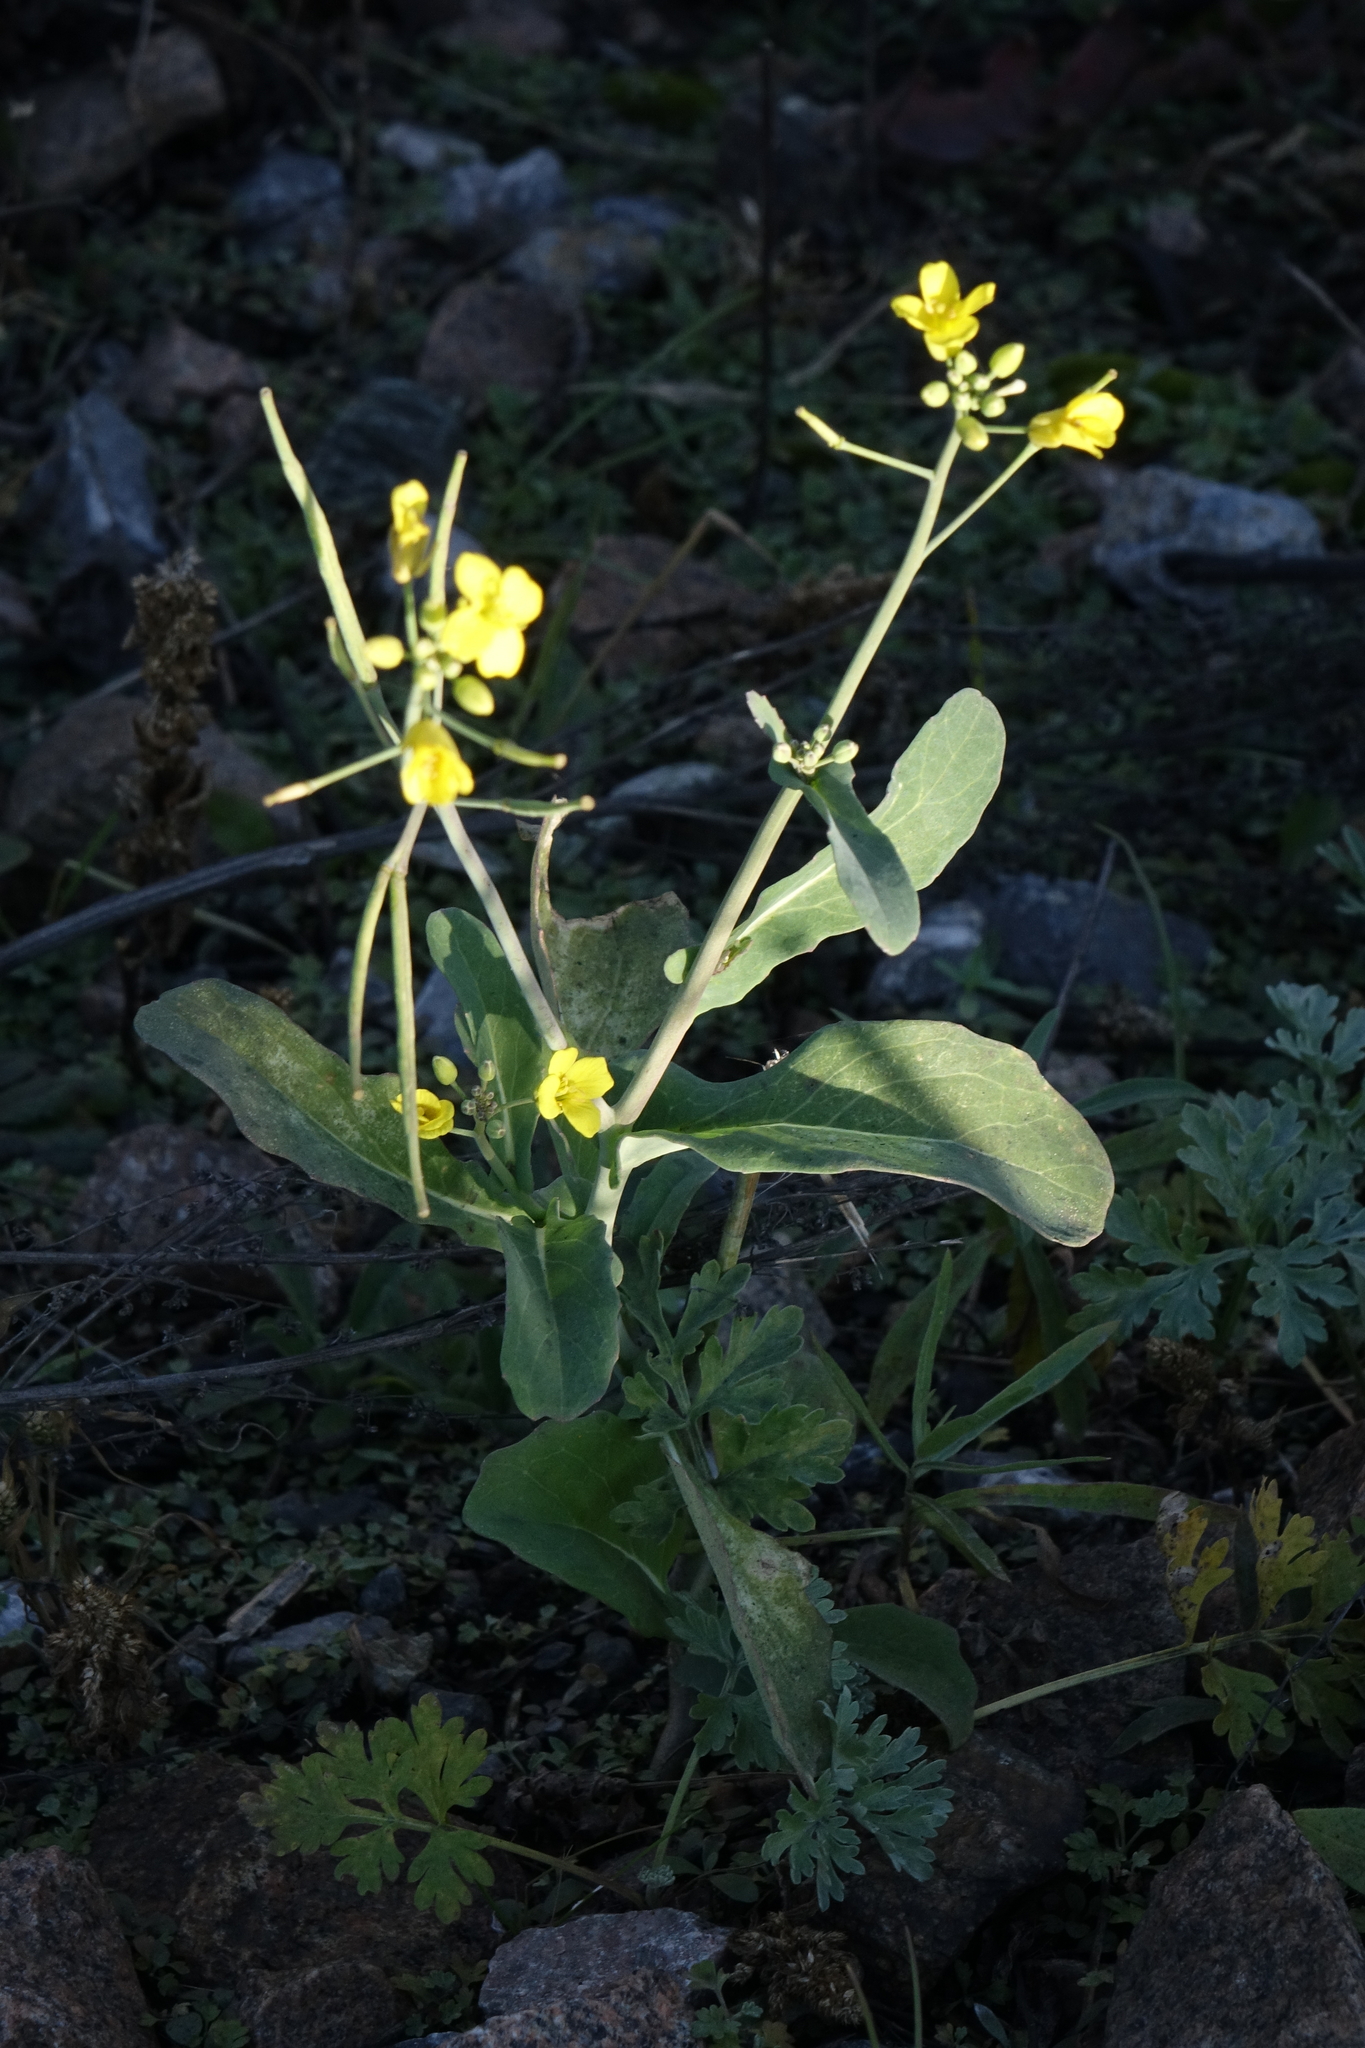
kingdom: Plantae
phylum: Tracheophyta
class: Magnoliopsida
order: Brassicales
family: Brassicaceae
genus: Brassica
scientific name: Brassica napus
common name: Rape
